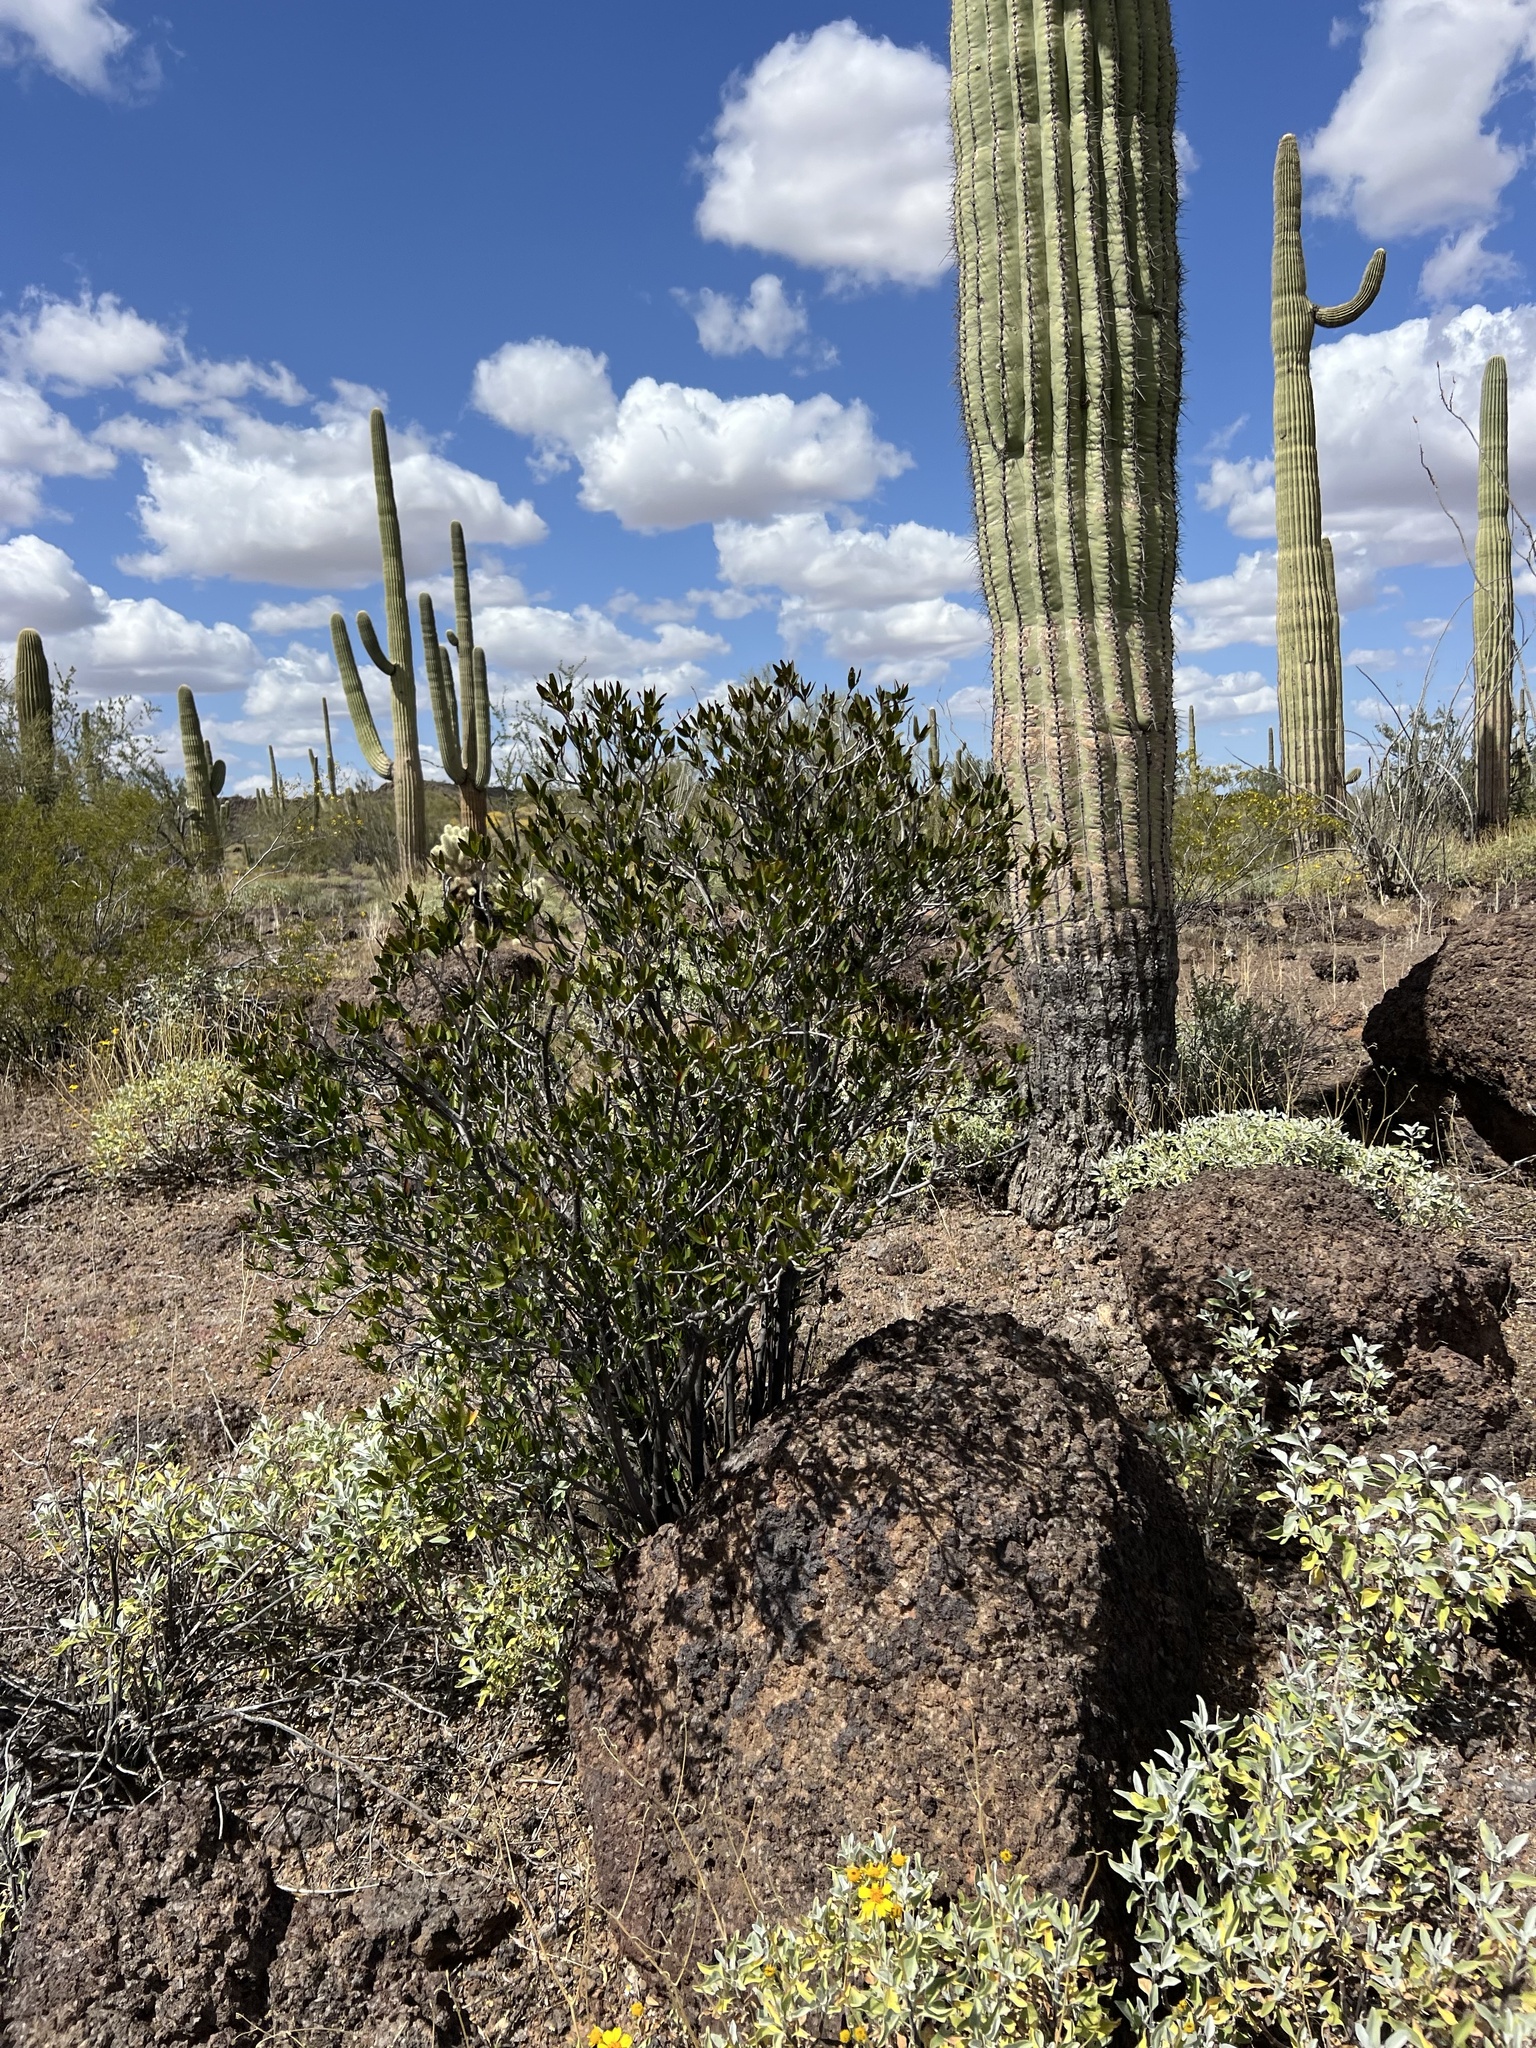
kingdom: Plantae
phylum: Tracheophyta
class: Magnoliopsida
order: Malpighiales
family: Euphorbiaceae
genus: Pleradenophora
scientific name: Pleradenophora bilocularis
